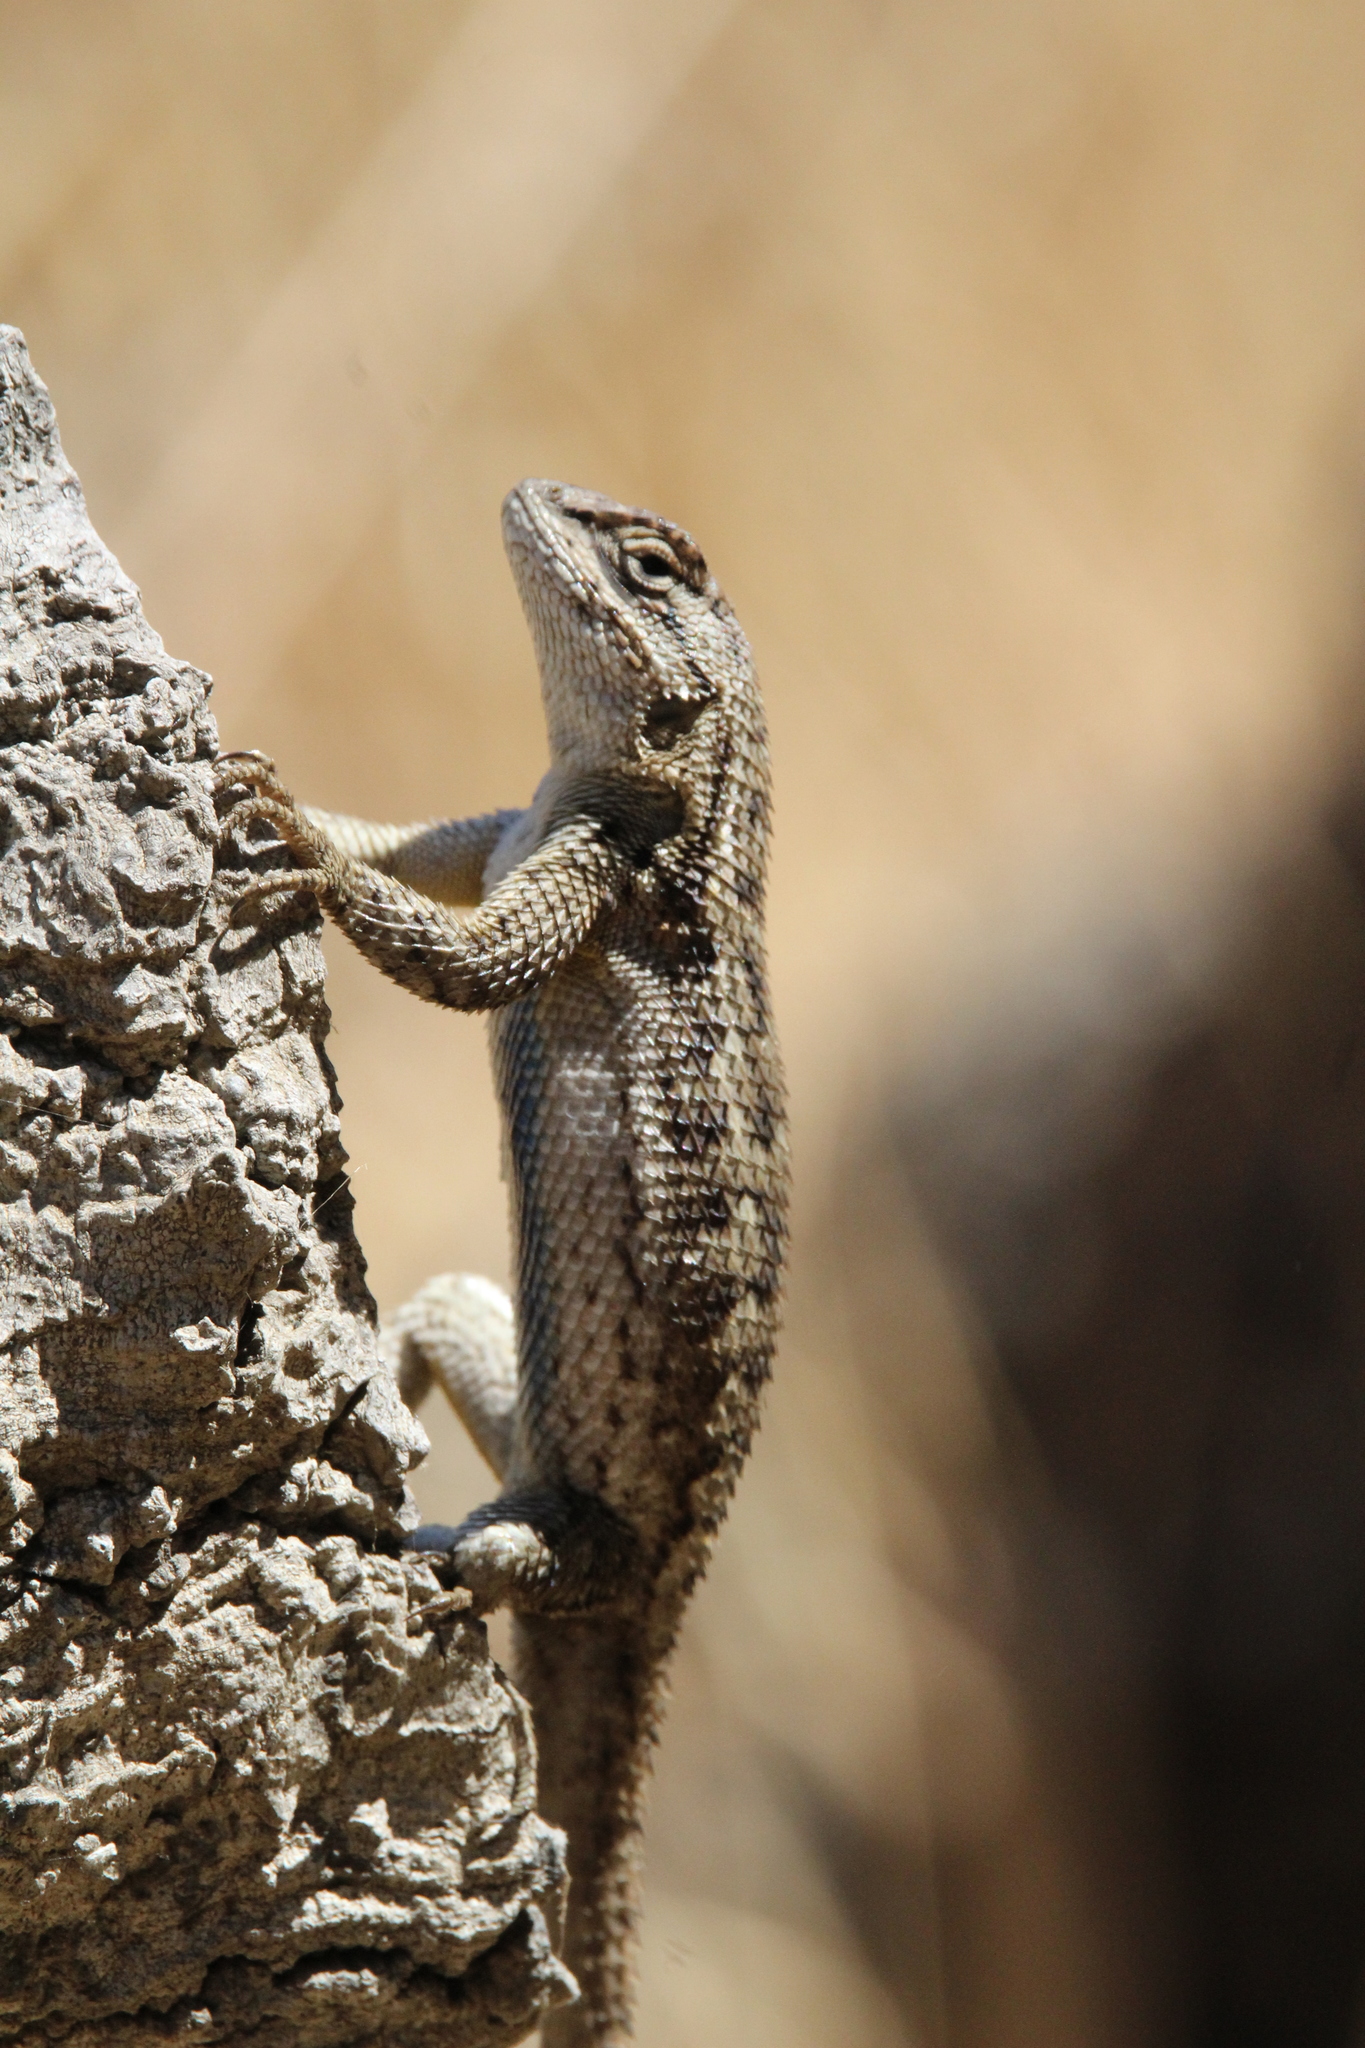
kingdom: Animalia
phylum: Chordata
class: Squamata
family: Phrynosomatidae
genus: Sceloporus
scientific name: Sceloporus occidentalis
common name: Western fence lizard
